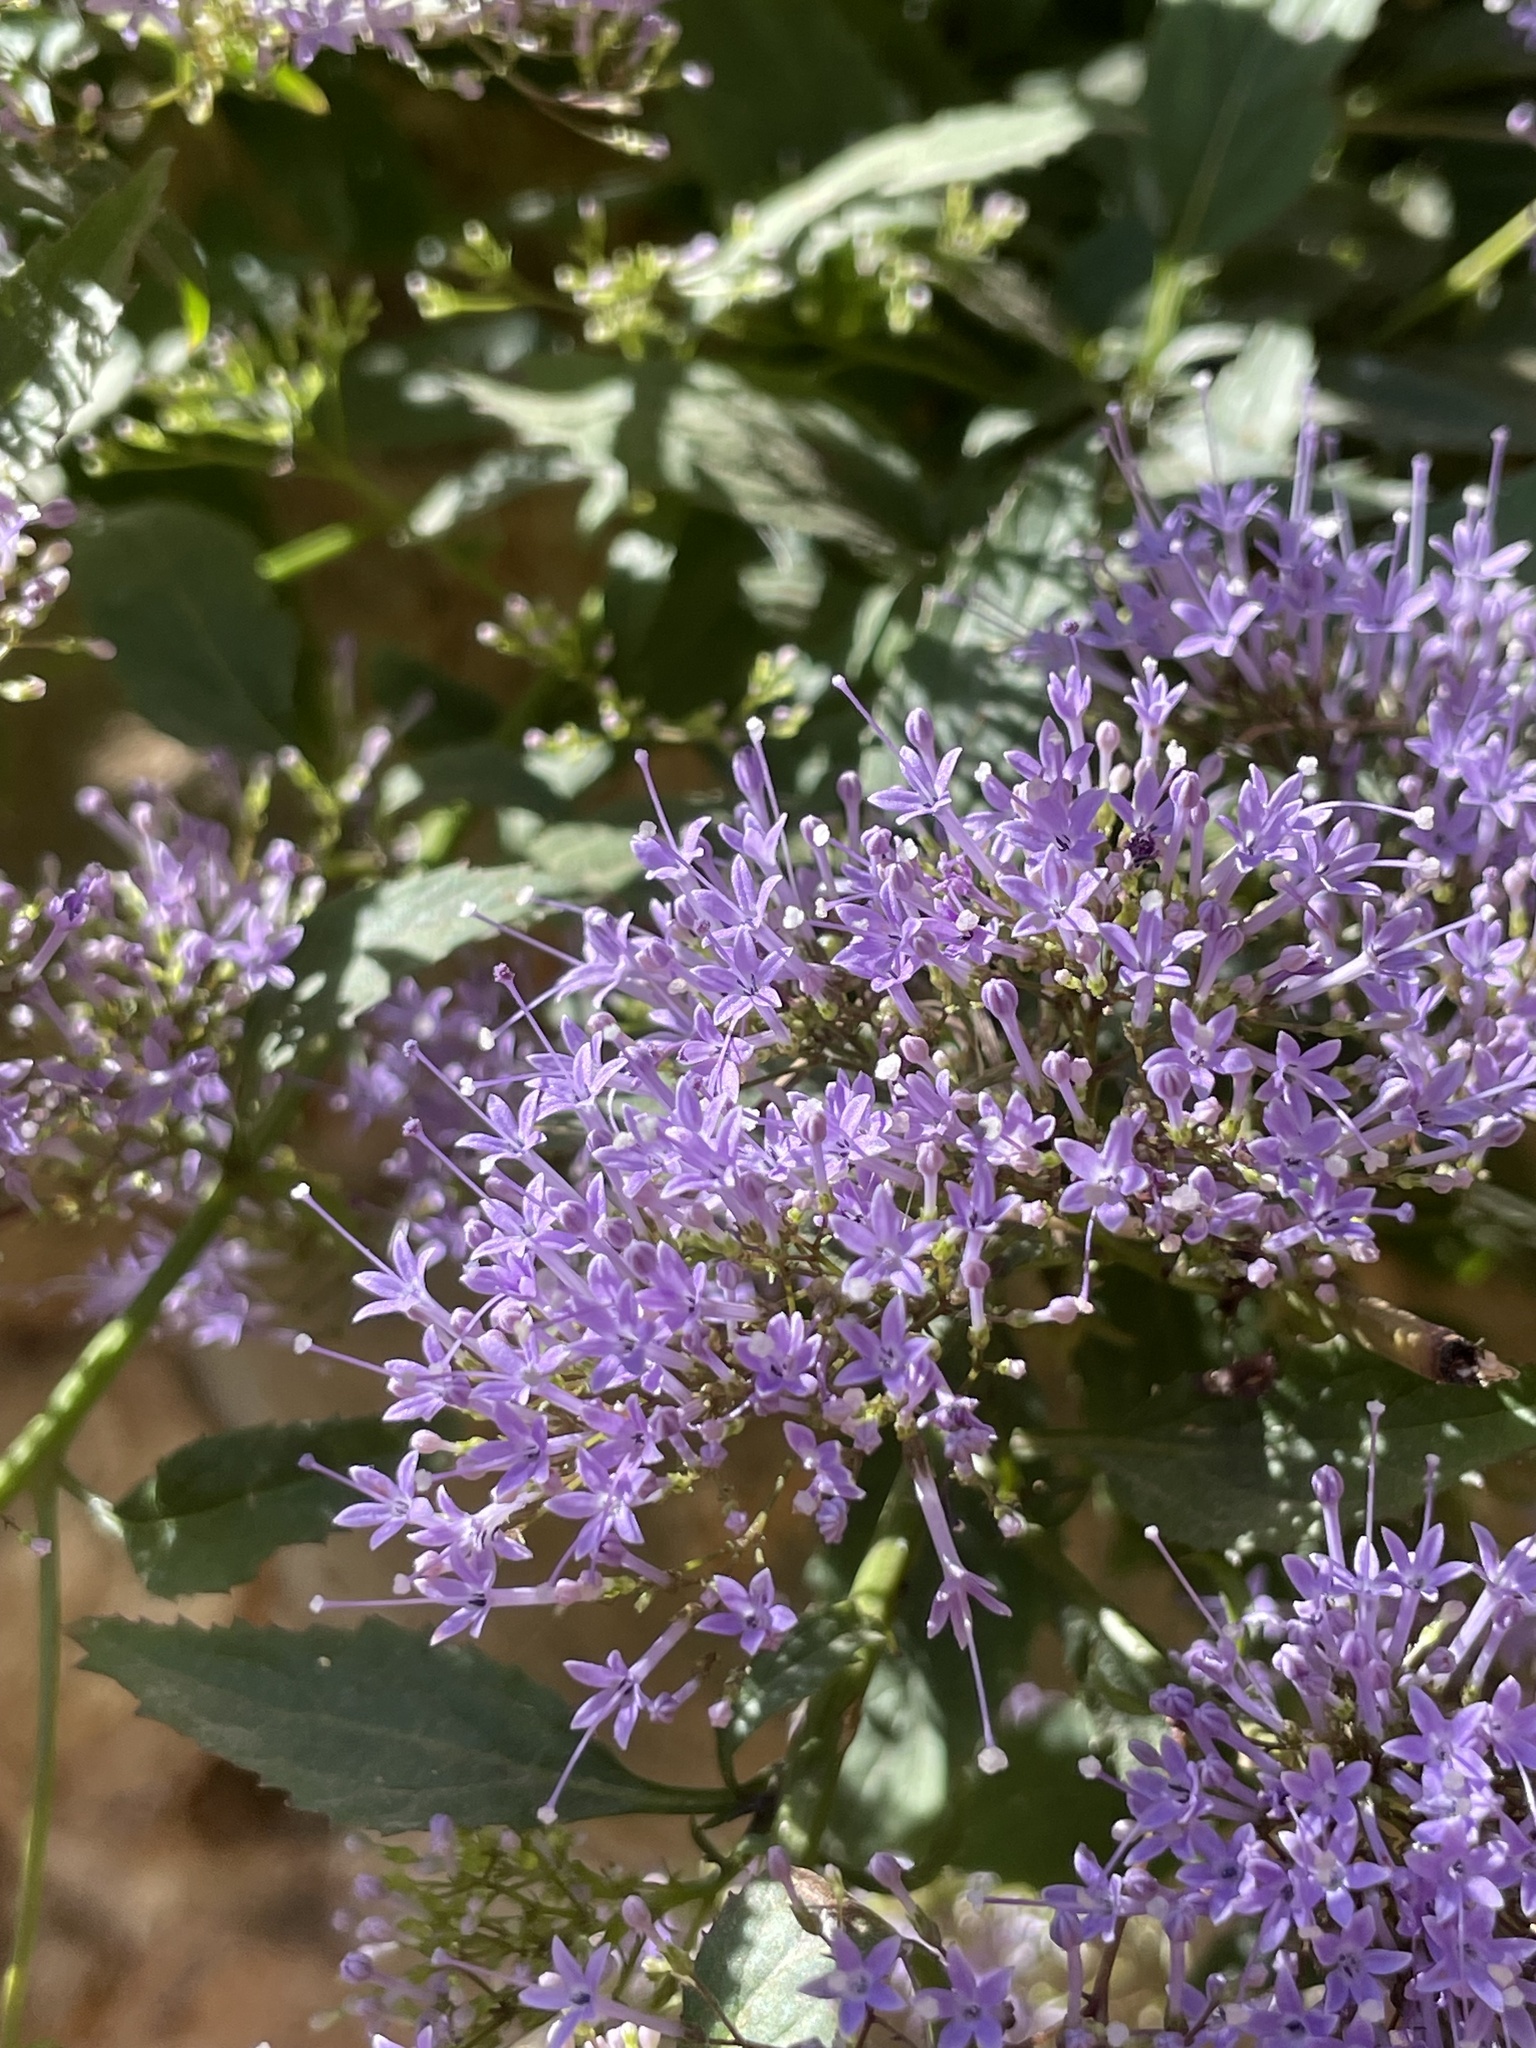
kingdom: Plantae
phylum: Tracheophyta
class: Magnoliopsida
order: Asterales
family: Campanulaceae
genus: Trachelium
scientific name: Trachelium caeruleum
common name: Throatwort
